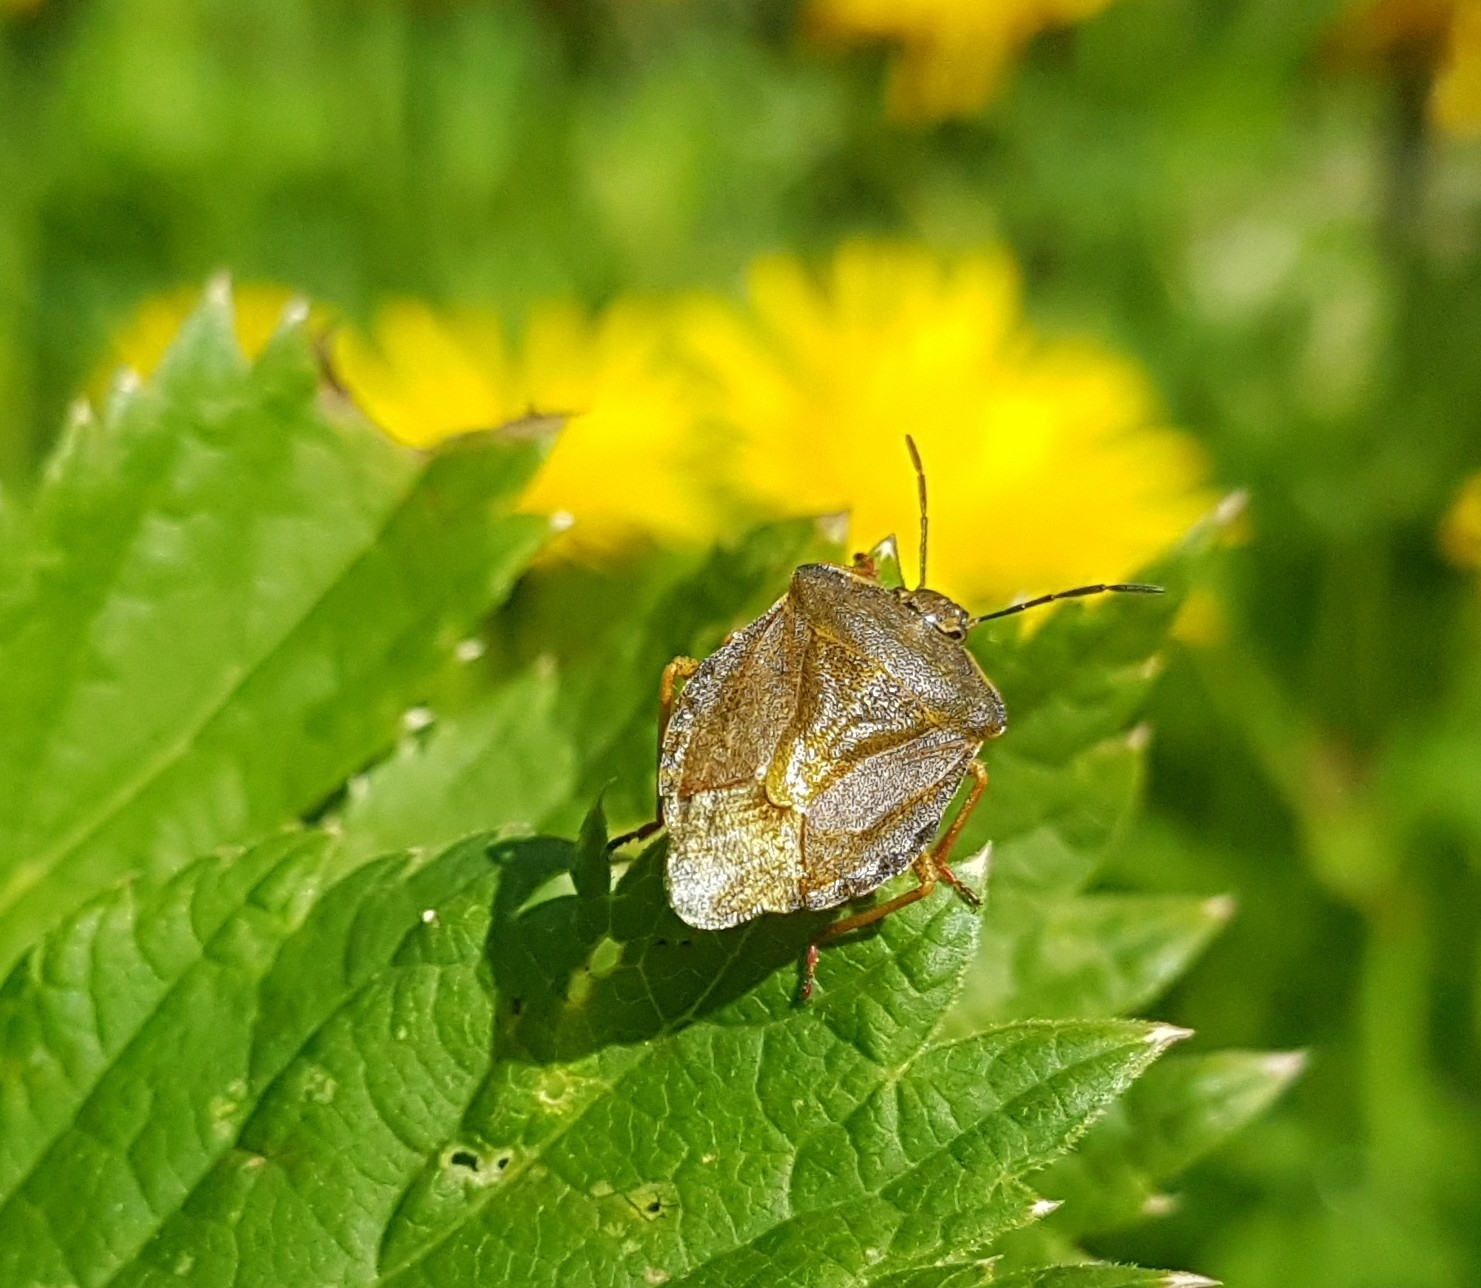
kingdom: Animalia
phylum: Arthropoda
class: Insecta
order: Hemiptera
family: Pentatomidae
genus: Carpocoris
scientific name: Carpocoris melanocerus
